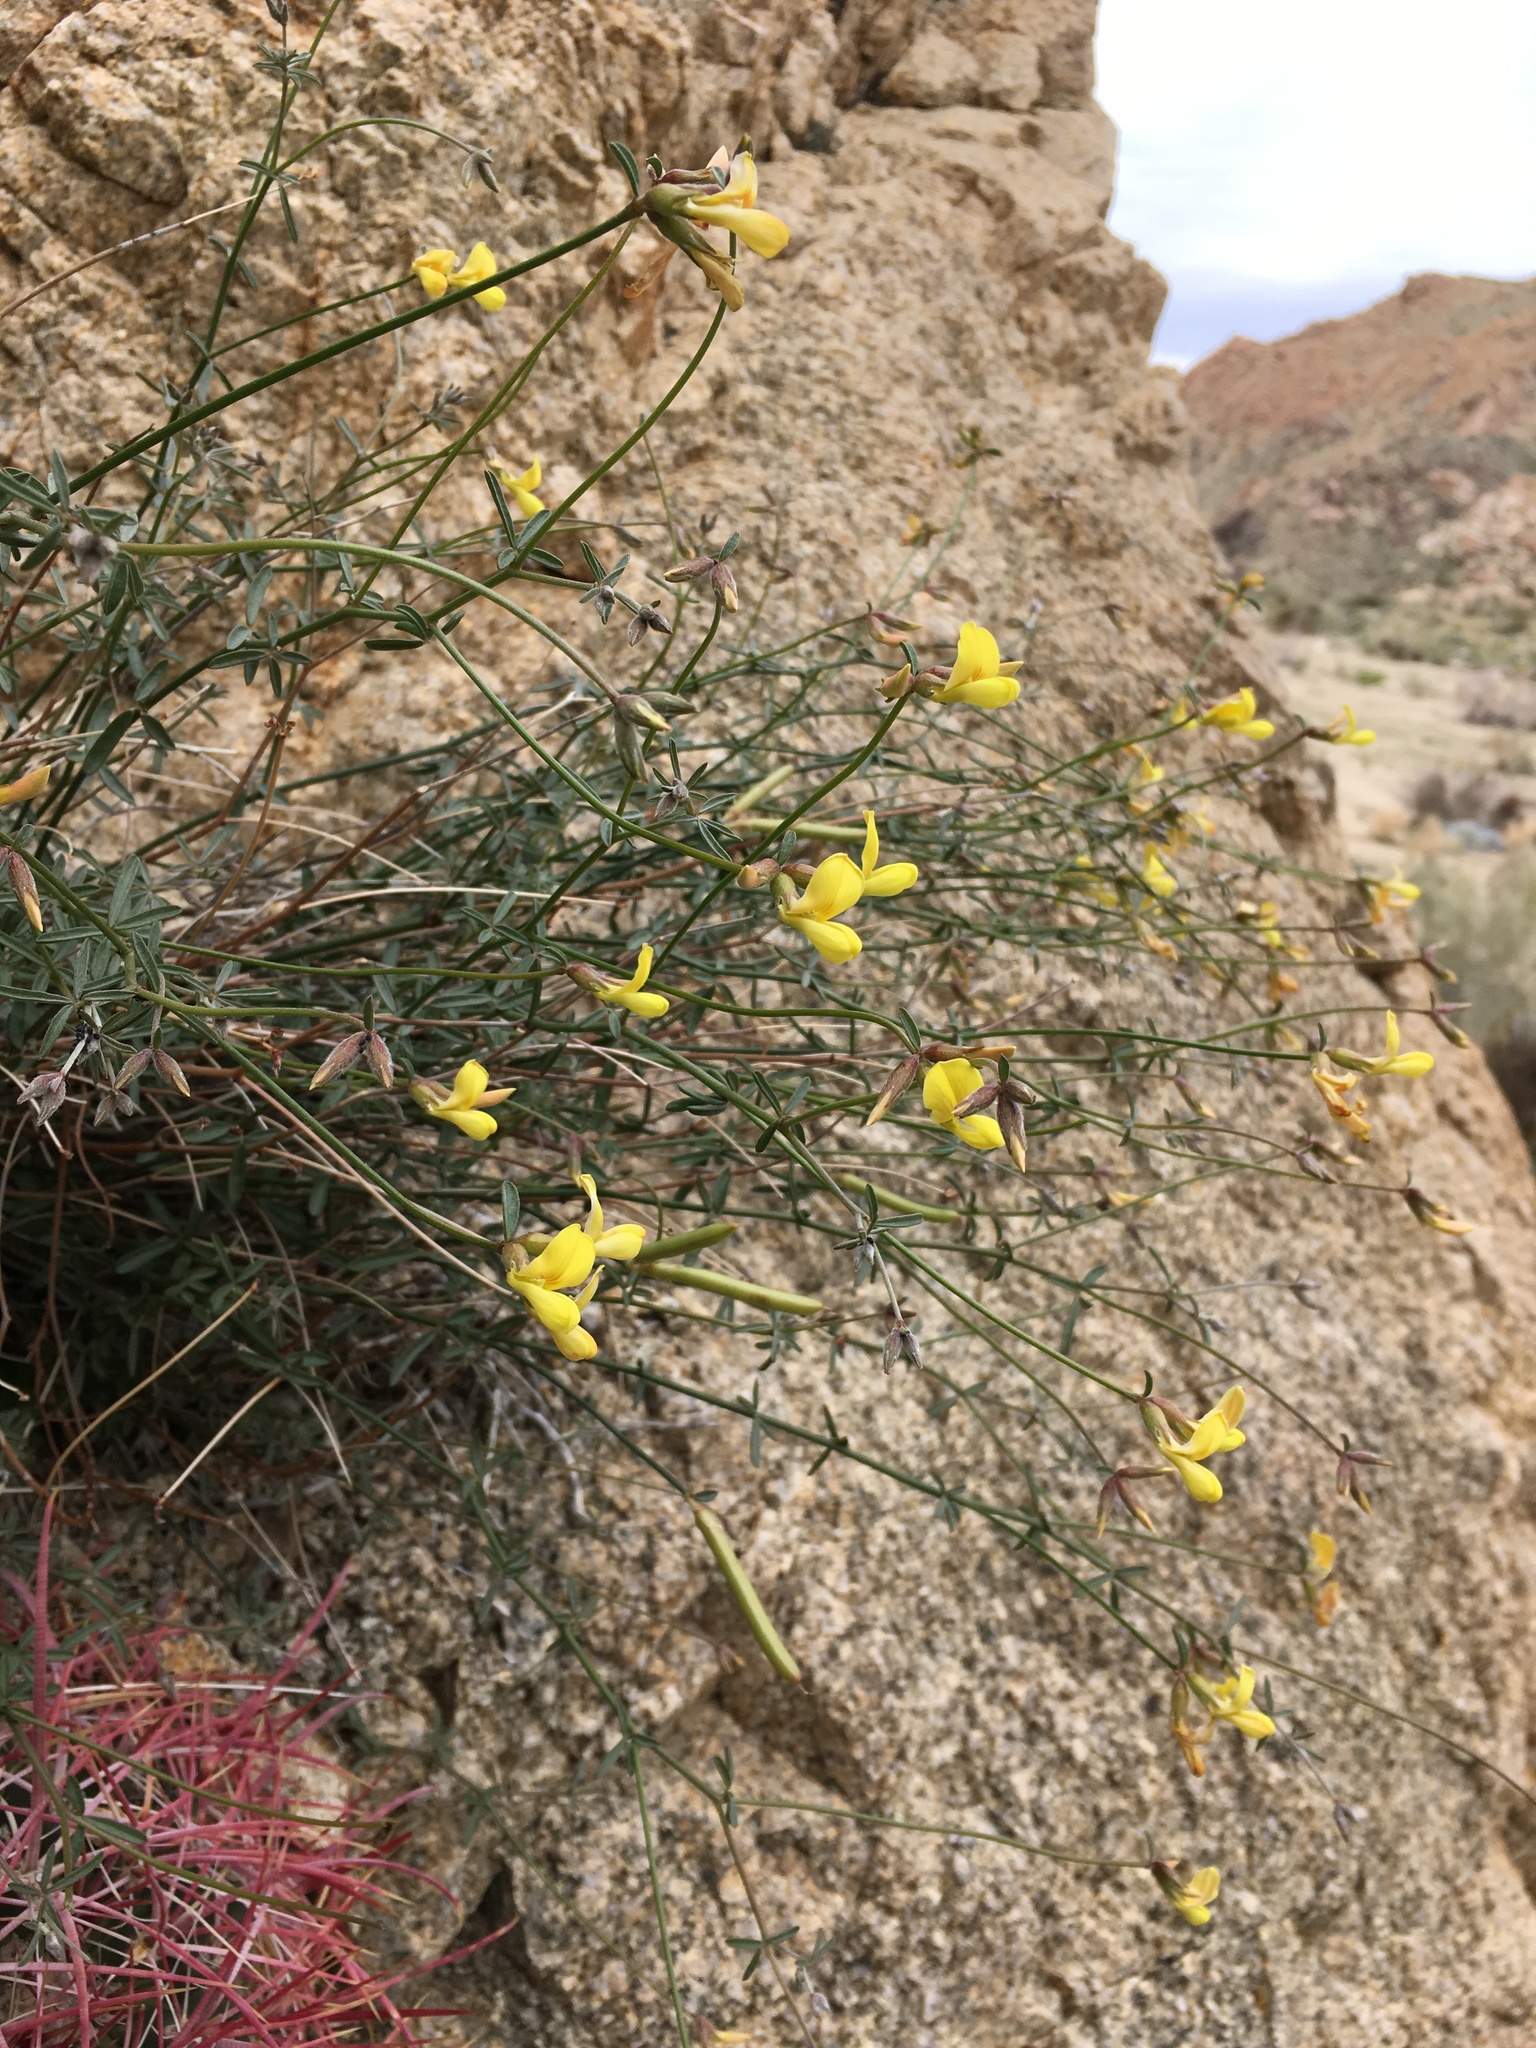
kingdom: Plantae
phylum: Tracheophyta
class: Magnoliopsida
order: Fabales
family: Fabaceae
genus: Acmispon
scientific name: Acmispon rigidus
